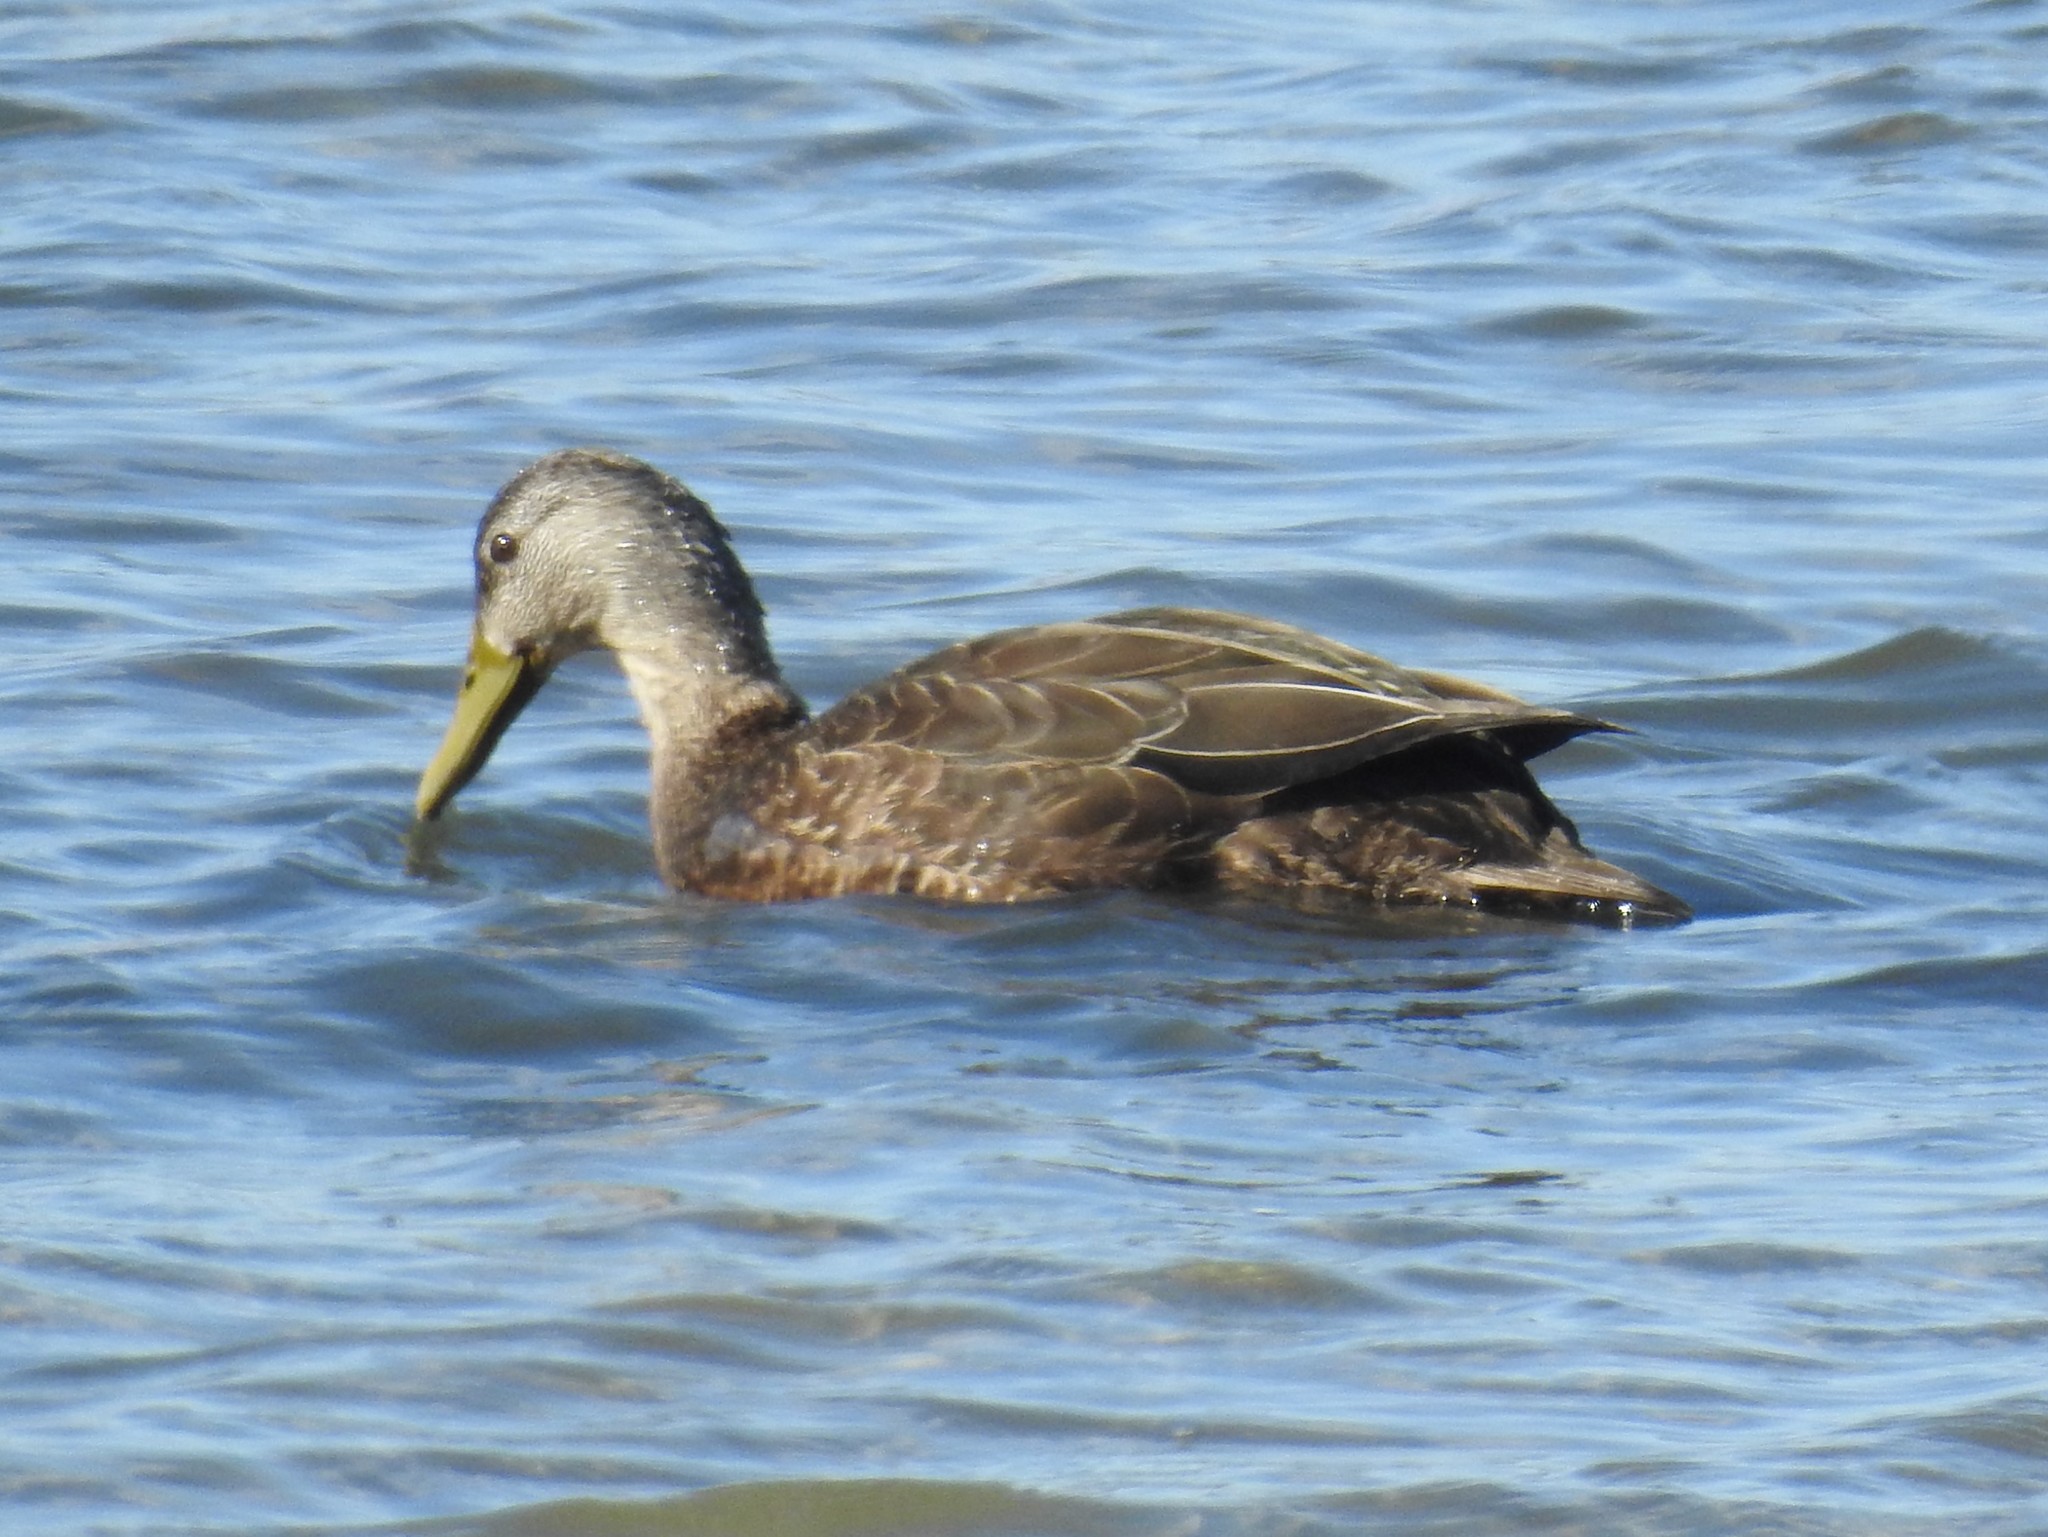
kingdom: Animalia
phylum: Chordata
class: Aves
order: Anseriformes
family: Anatidae
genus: Anas
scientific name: Anas rubripes
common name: American black duck
